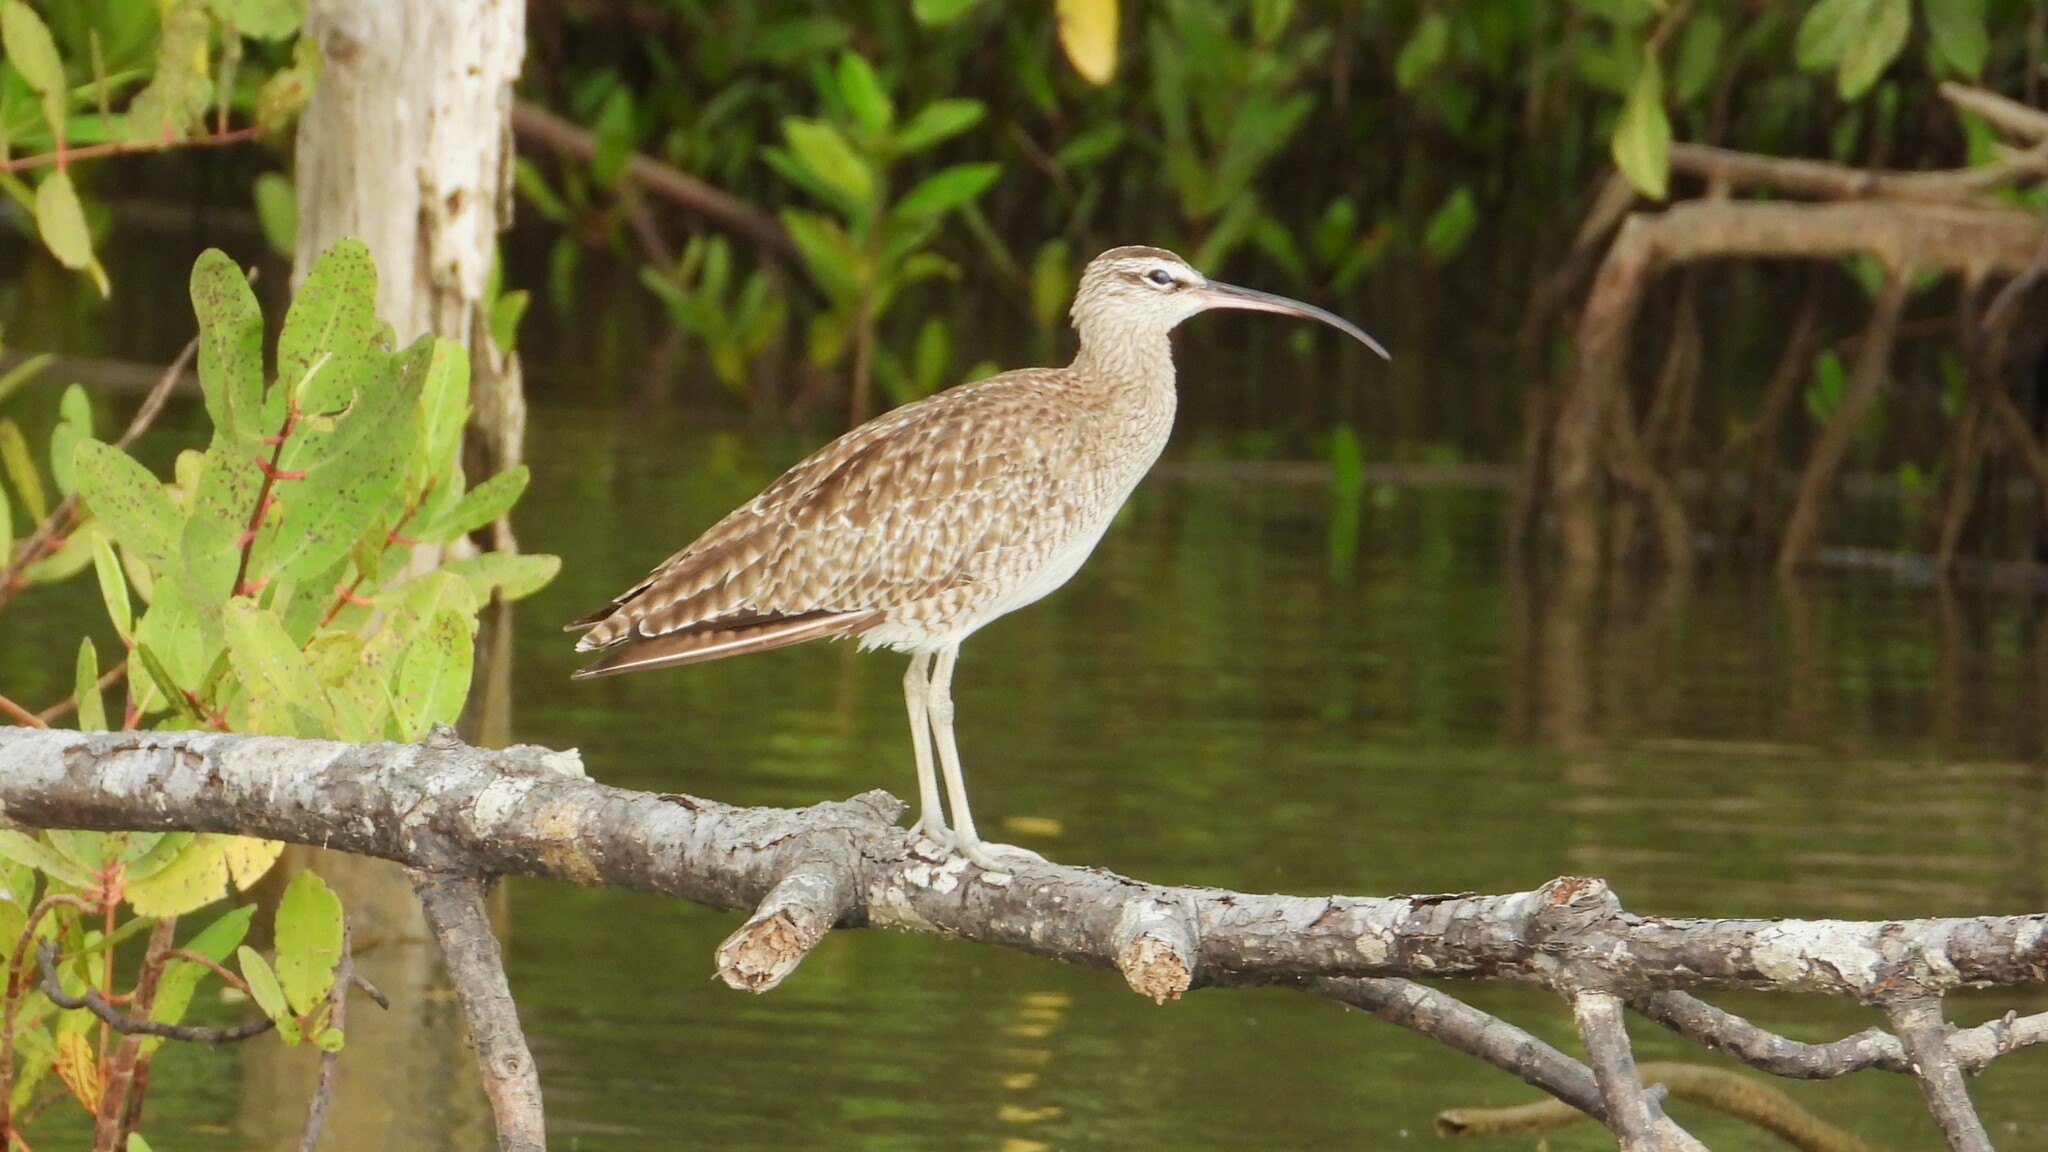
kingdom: Animalia
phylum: Chordata
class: Aves
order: Charadriiformes
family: Scolopacidae
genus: Numenius
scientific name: Numenius phaeopus
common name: Whimbrel
